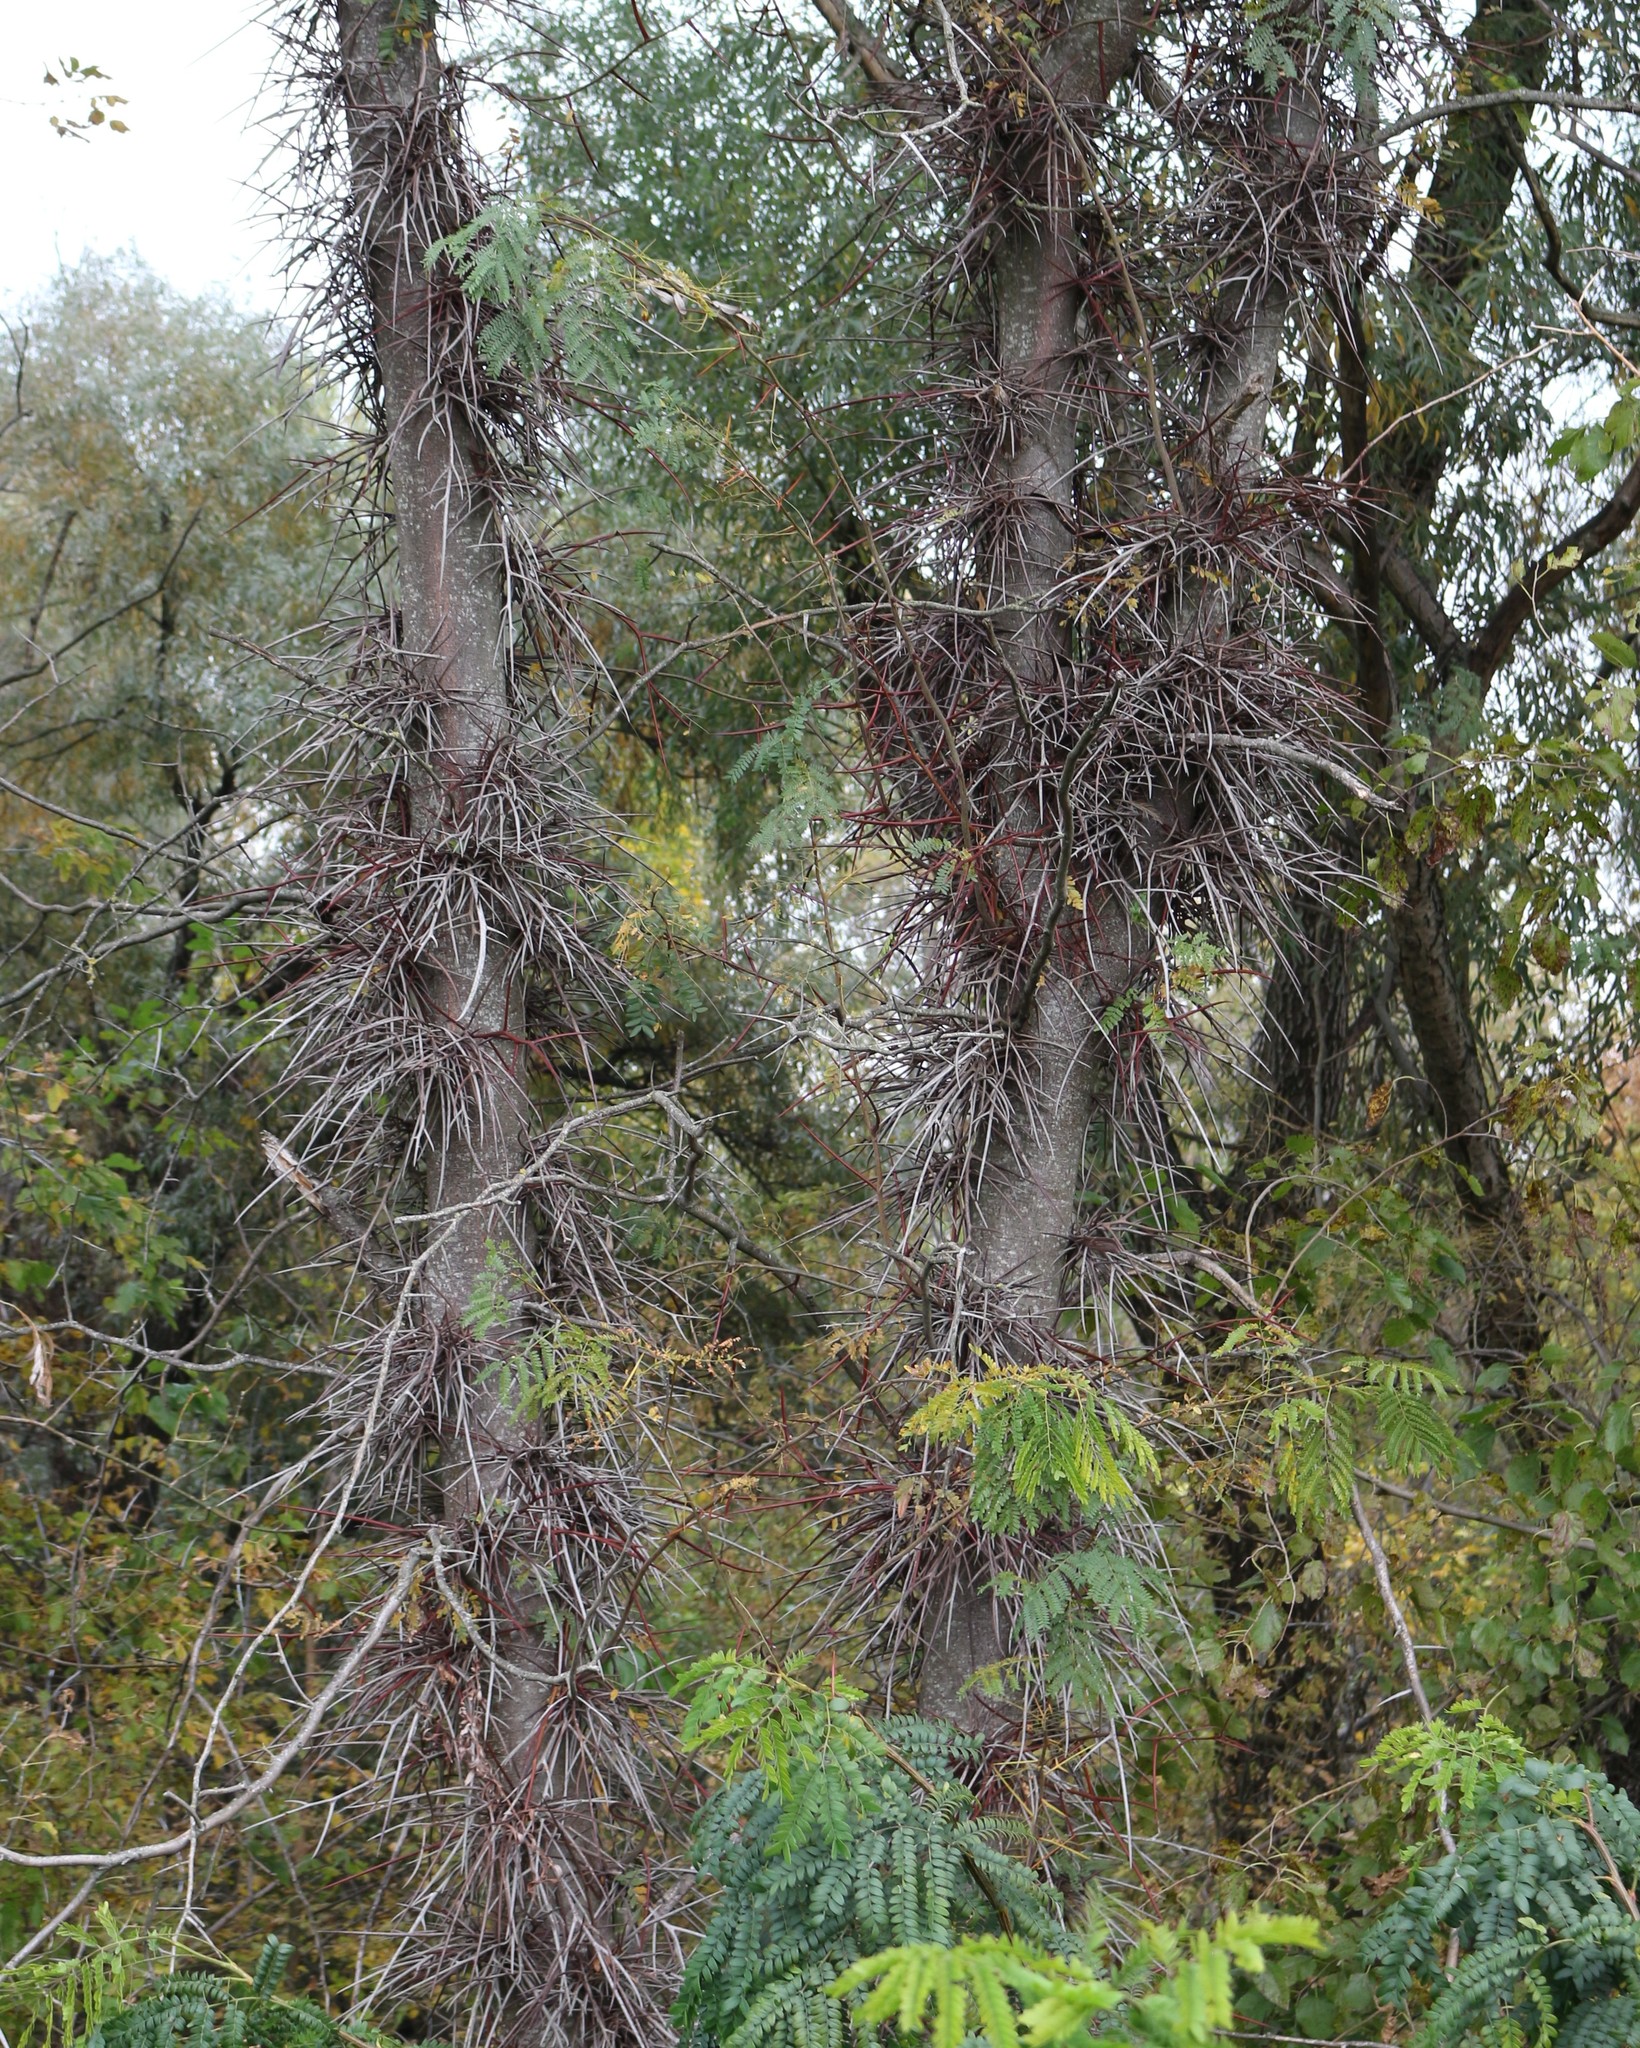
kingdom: Plantae
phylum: Tracheophyta
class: Magnoliopsida
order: Fabales
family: Fabaceae
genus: Gleditsia
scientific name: Gleditsia triacanthos
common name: Common honeylocust
